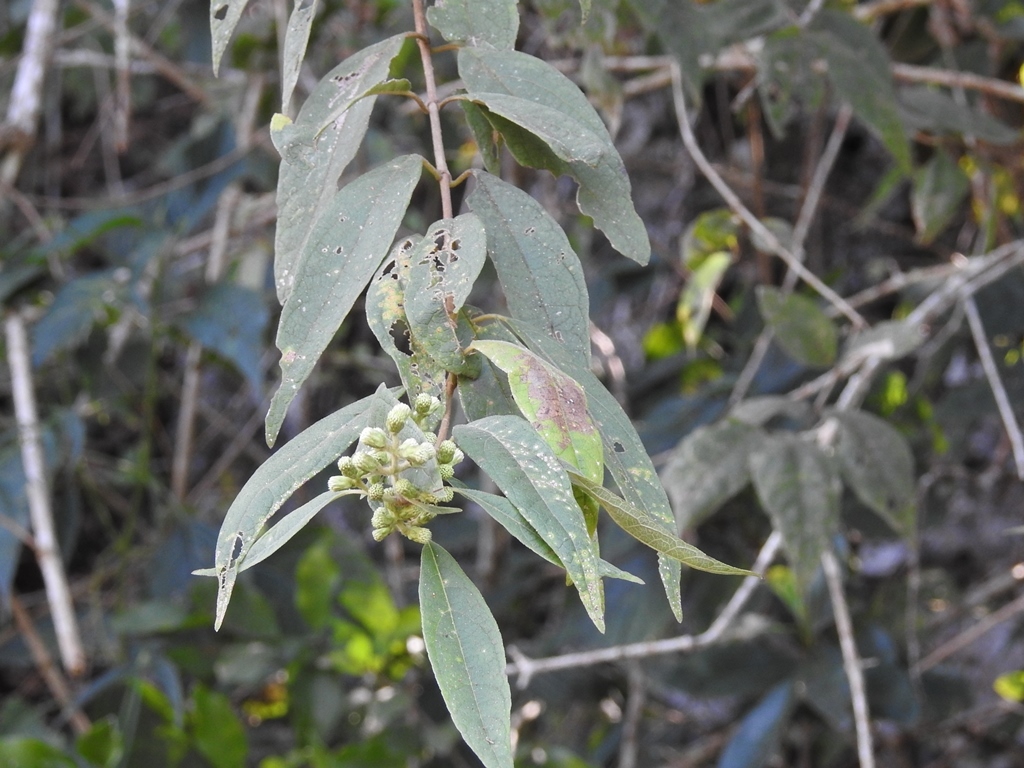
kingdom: Plantae
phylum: Tracheophyta
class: Magnoliopsida
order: Asterales
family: Asteraceae
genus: Otopappus
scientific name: Otopappus brevipes
